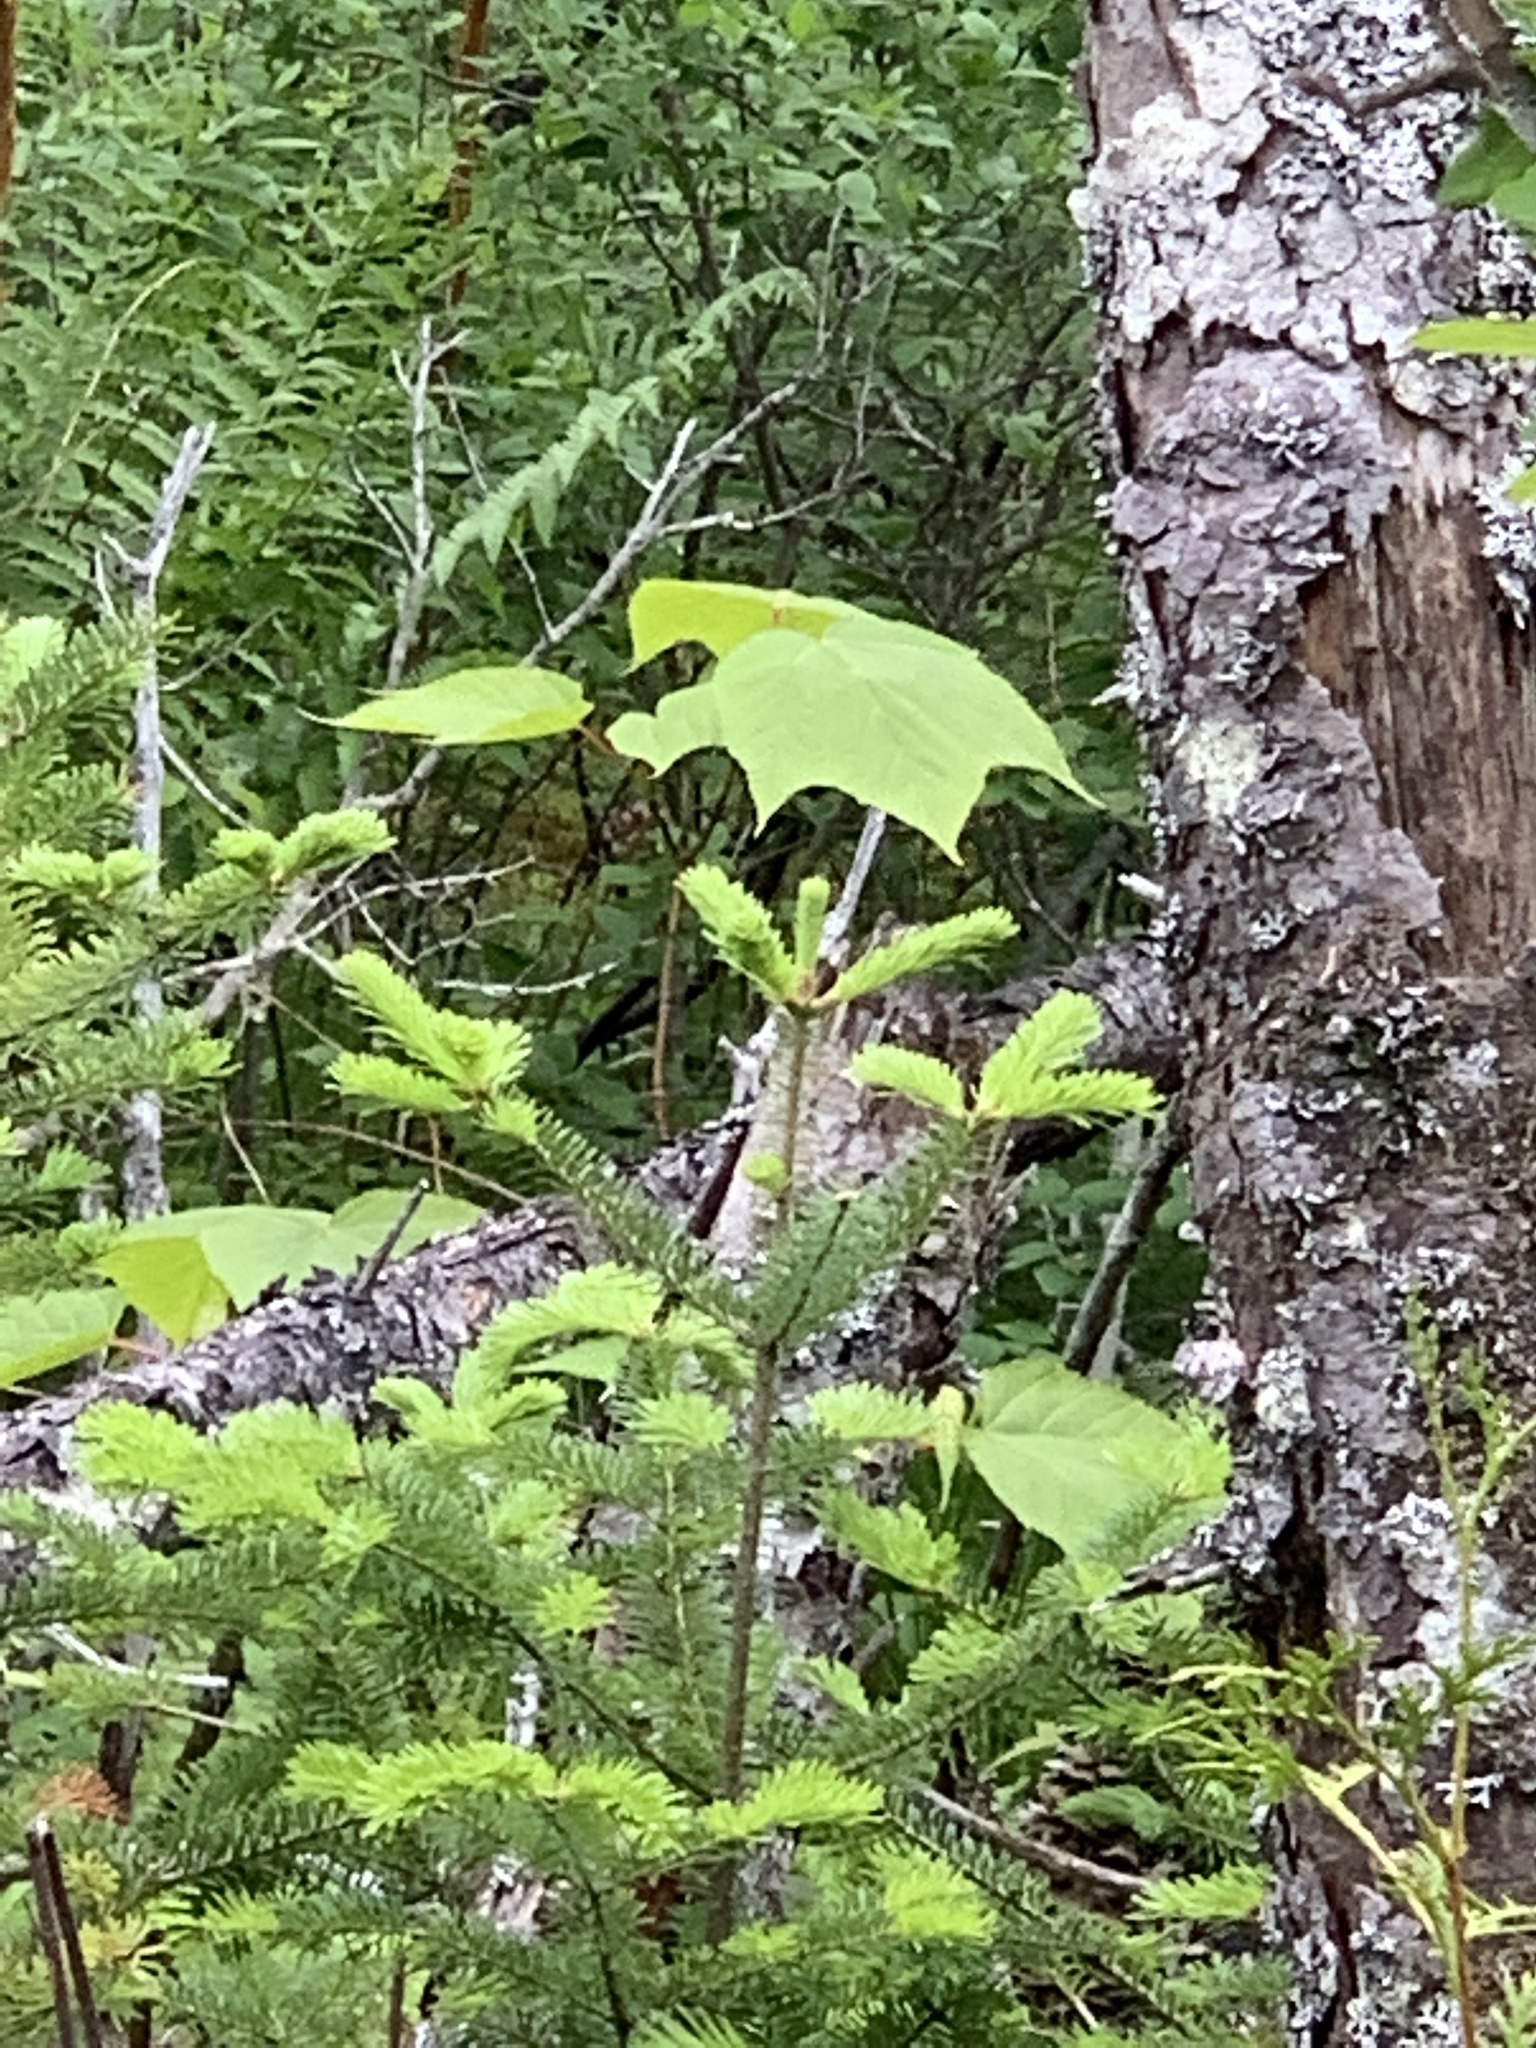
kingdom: Plantae
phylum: Tracheophyta
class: Magnoliopsida
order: Sapindales
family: Sapindaceae
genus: Acer
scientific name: Acer pensylvanicum
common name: Moosewood
